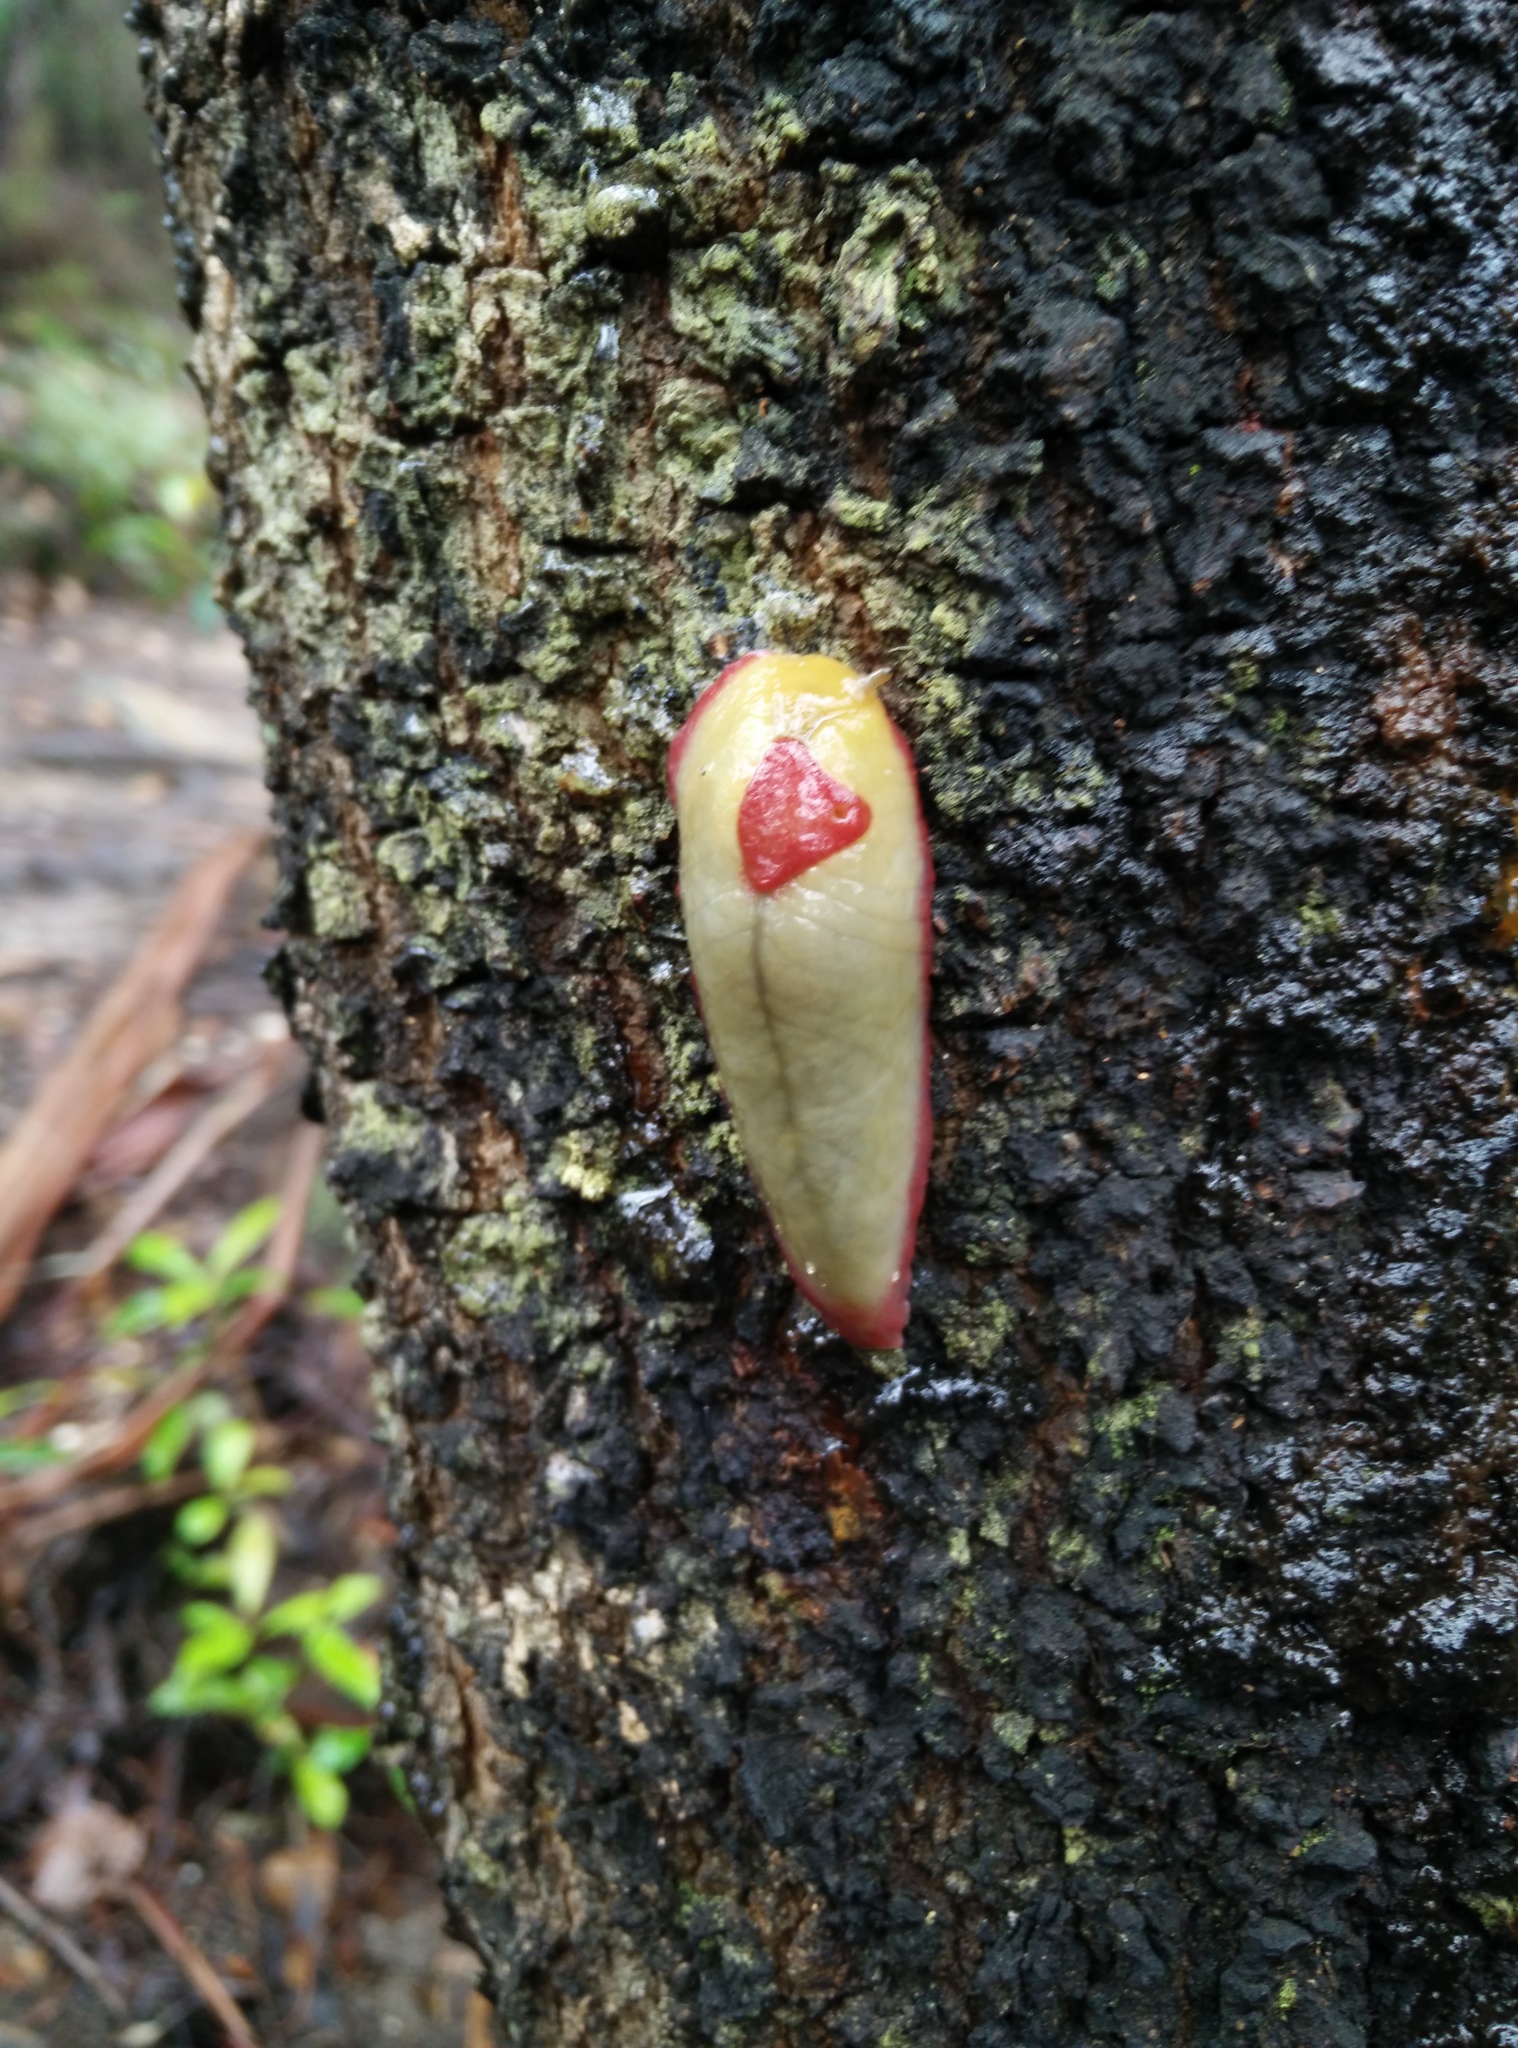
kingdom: Animalia
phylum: Mollusca
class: Gastropoda
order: Stylommatophora
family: Athoracophoridae
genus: Triboniophorus
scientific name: Triboniophorus graeffei
